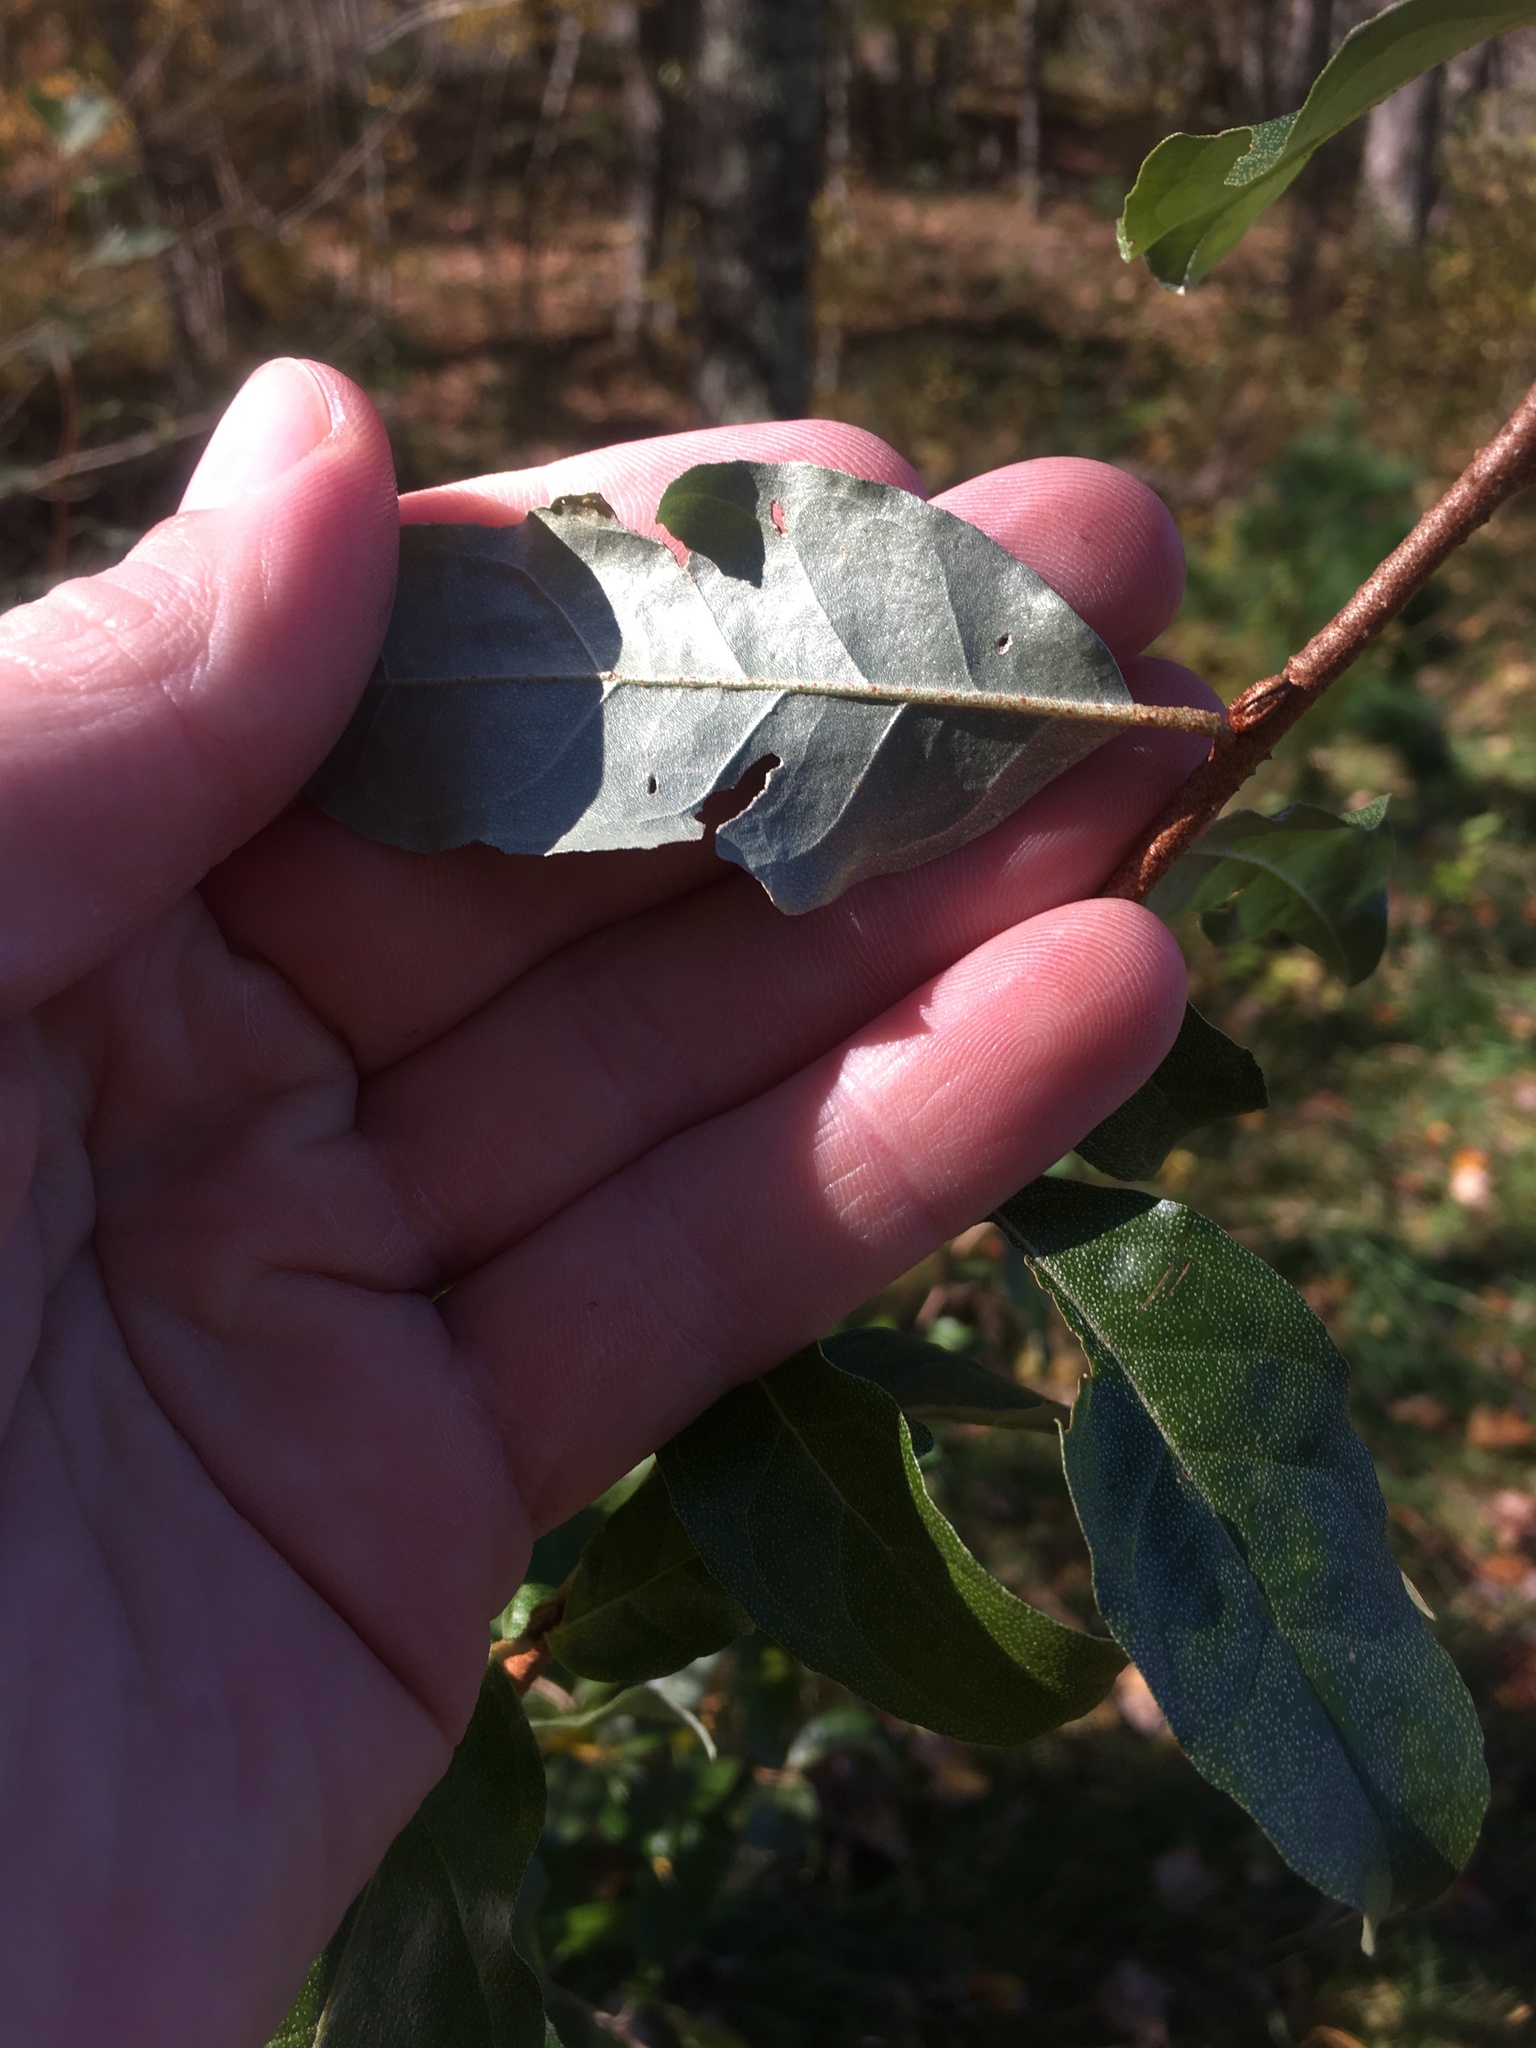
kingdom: Plantae
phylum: Tracheophyta
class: Magnoliopsida
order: Rosales
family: Elaeagnaceae
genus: Elaeagnus
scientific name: Elaeagnus umbellata
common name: Autumn olive
